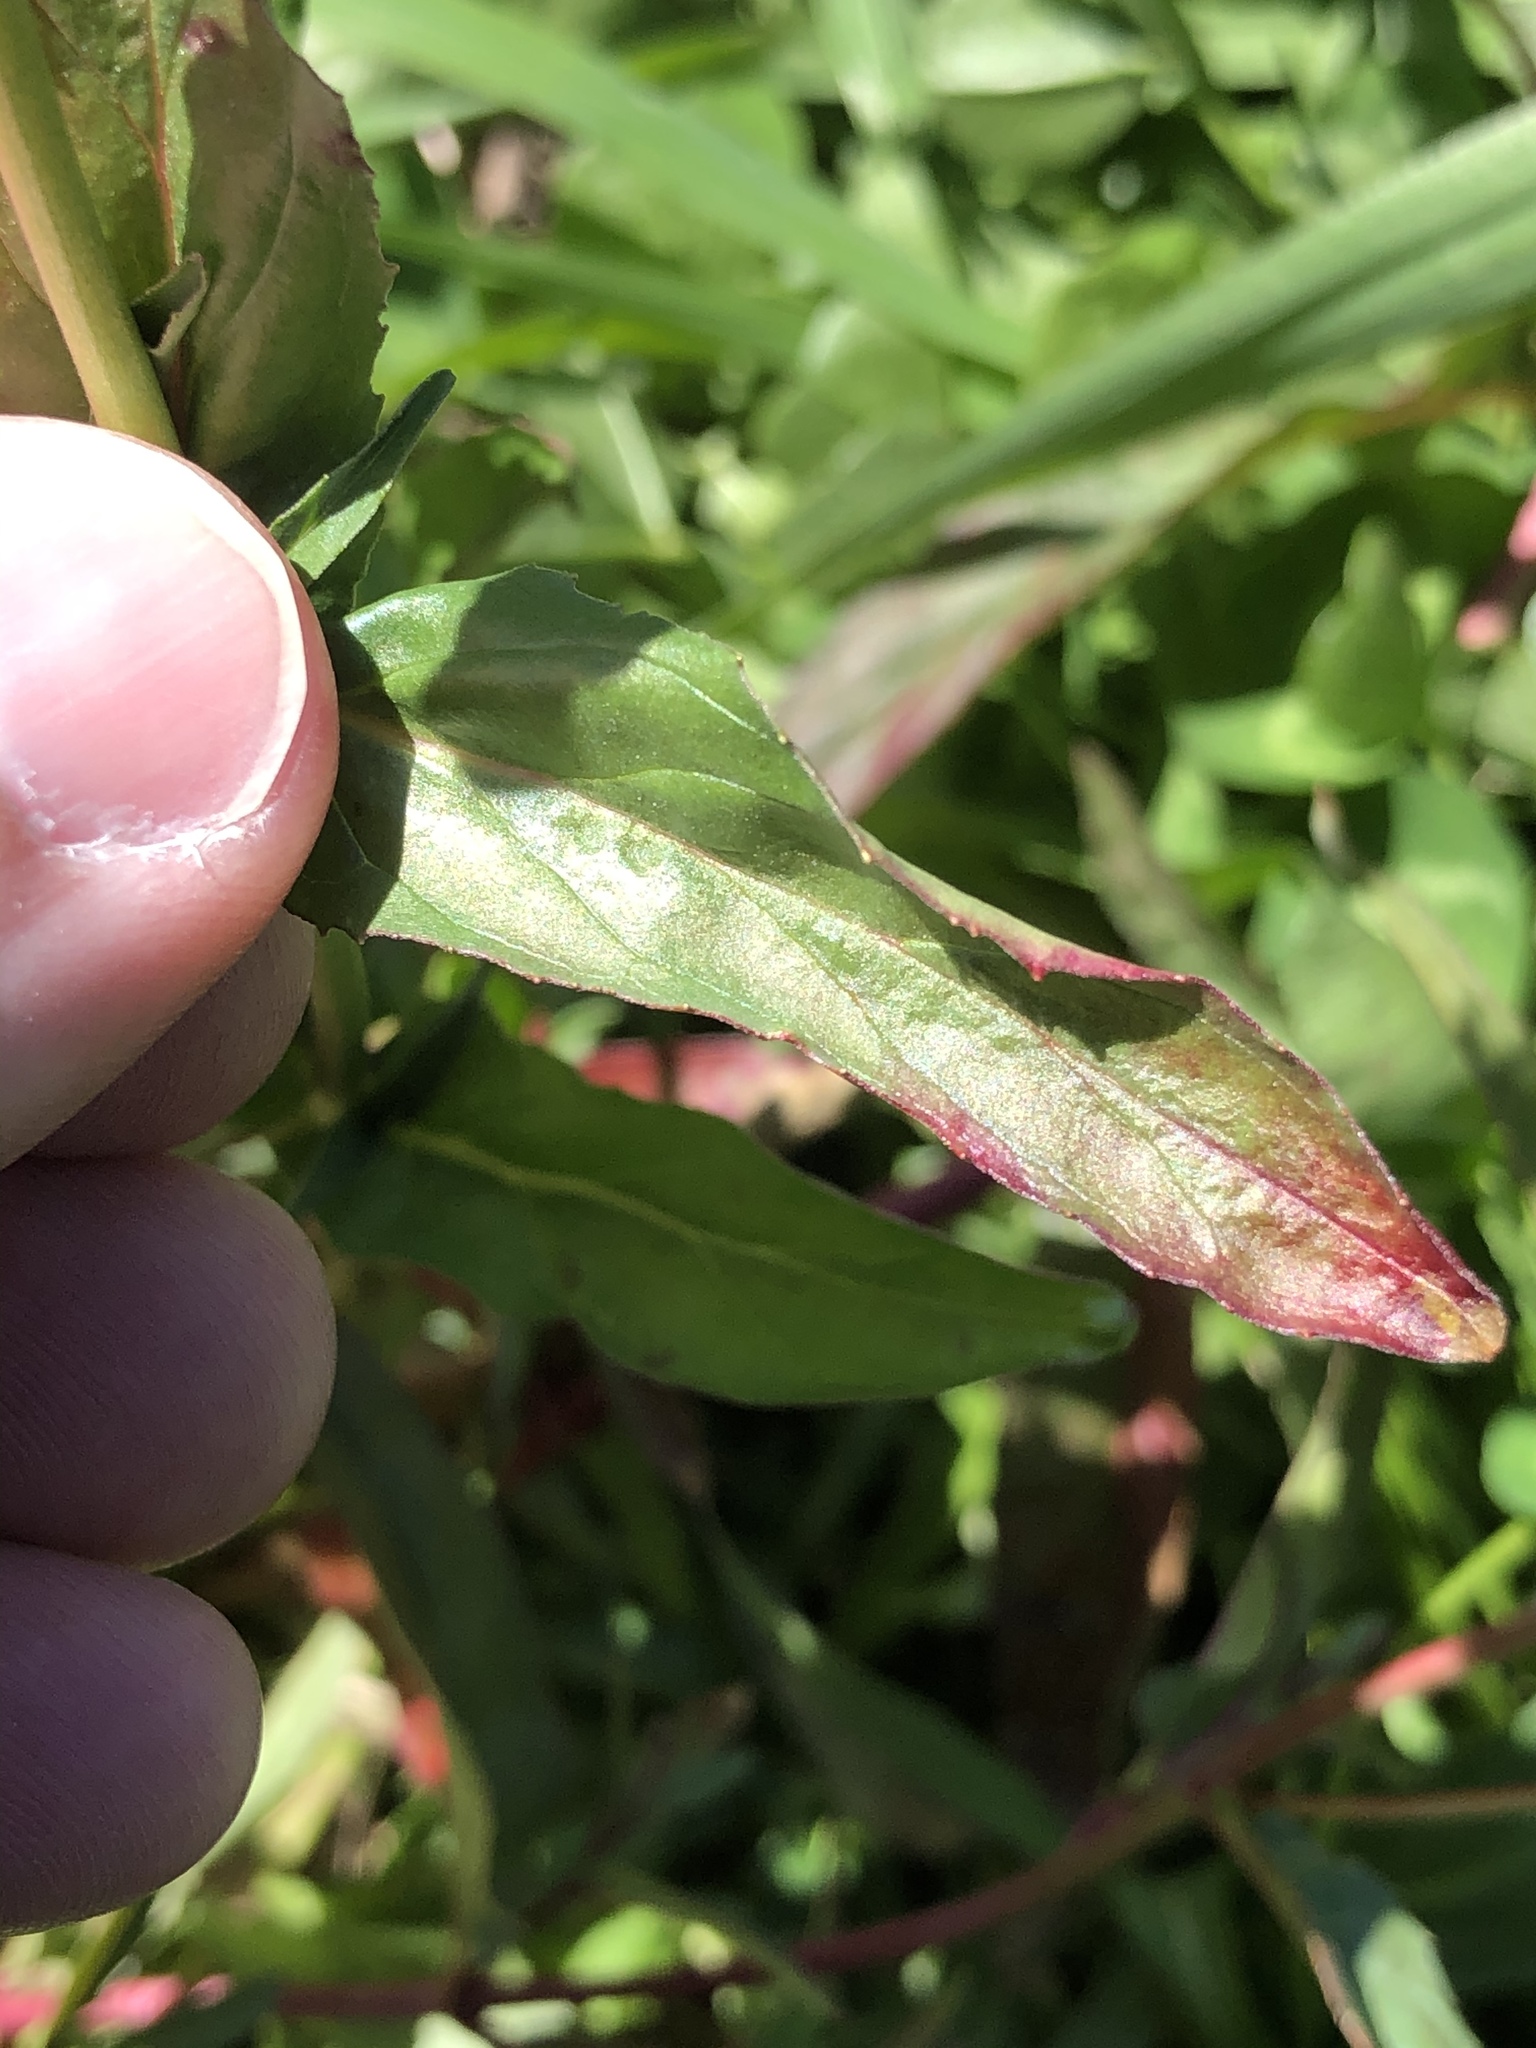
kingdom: Plantae
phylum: Tracheophyta
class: Magnoliopsida
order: Myrtales
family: Onagraceae
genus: Epilobium
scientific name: Epilobium obscurum
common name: Short-fruited willowherb
